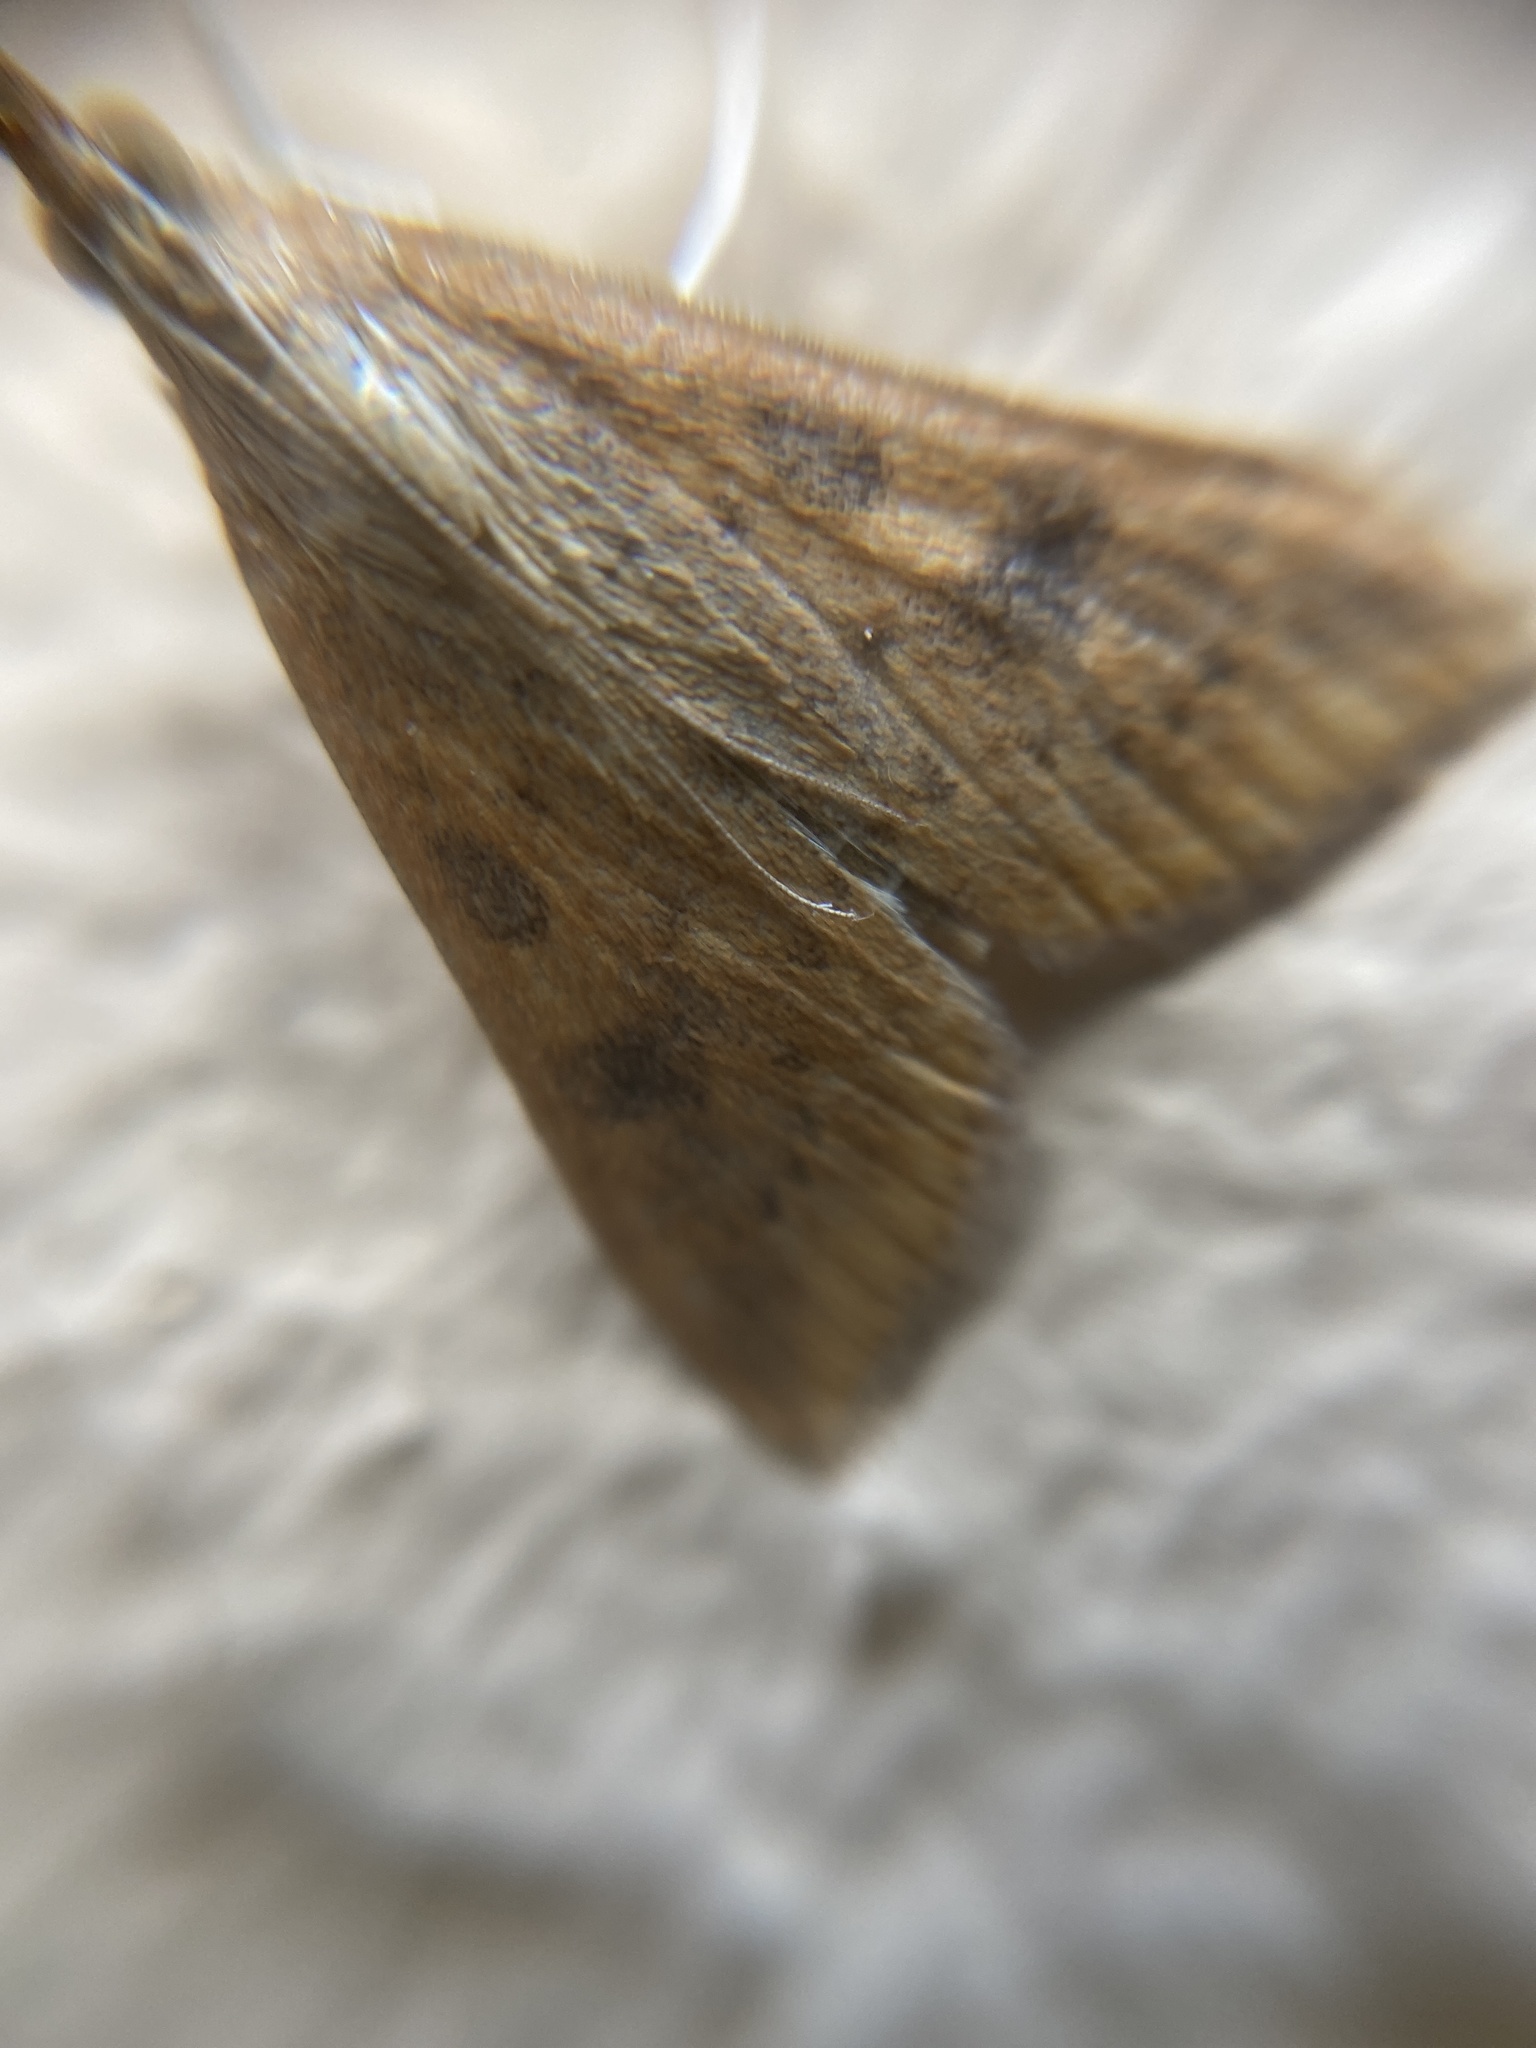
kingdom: Animalia
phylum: Arthropoda
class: Insecta
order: Lepidoptera
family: Crambidae
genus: Udea
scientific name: Udea ferrugalis
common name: Rusty dot
